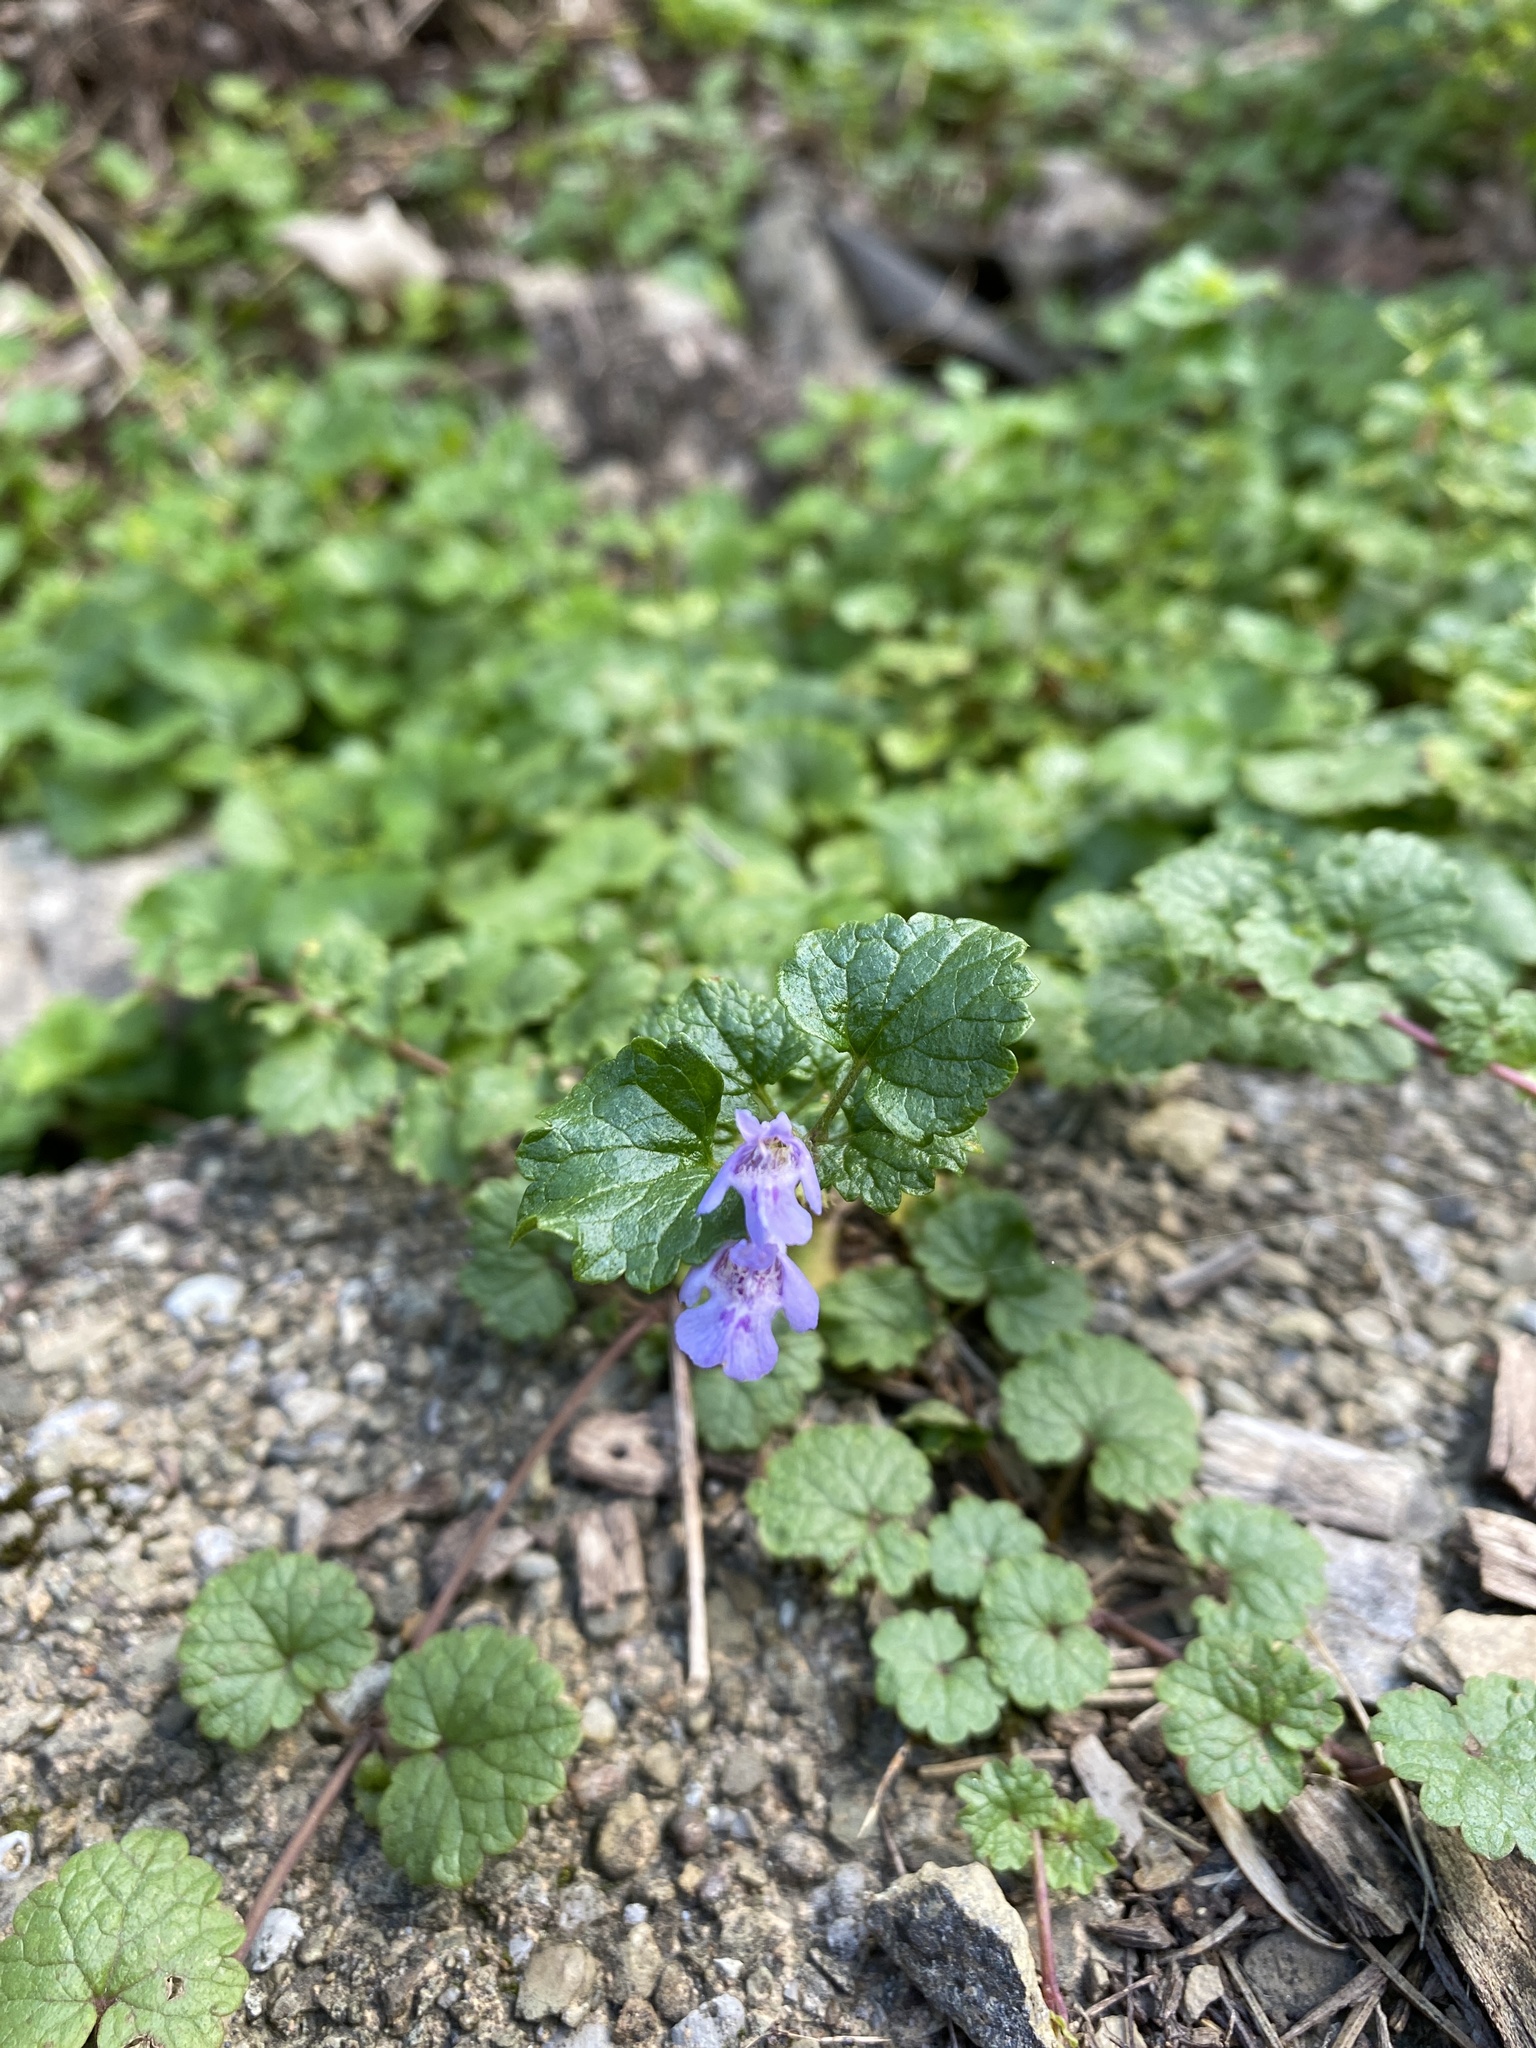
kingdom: Plantae
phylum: Tracheophyta
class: Magnoliopsida
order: Lamiales
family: Lamiaceae
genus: Glechoma
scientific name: Glechoma hederacea
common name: Ground ivy
